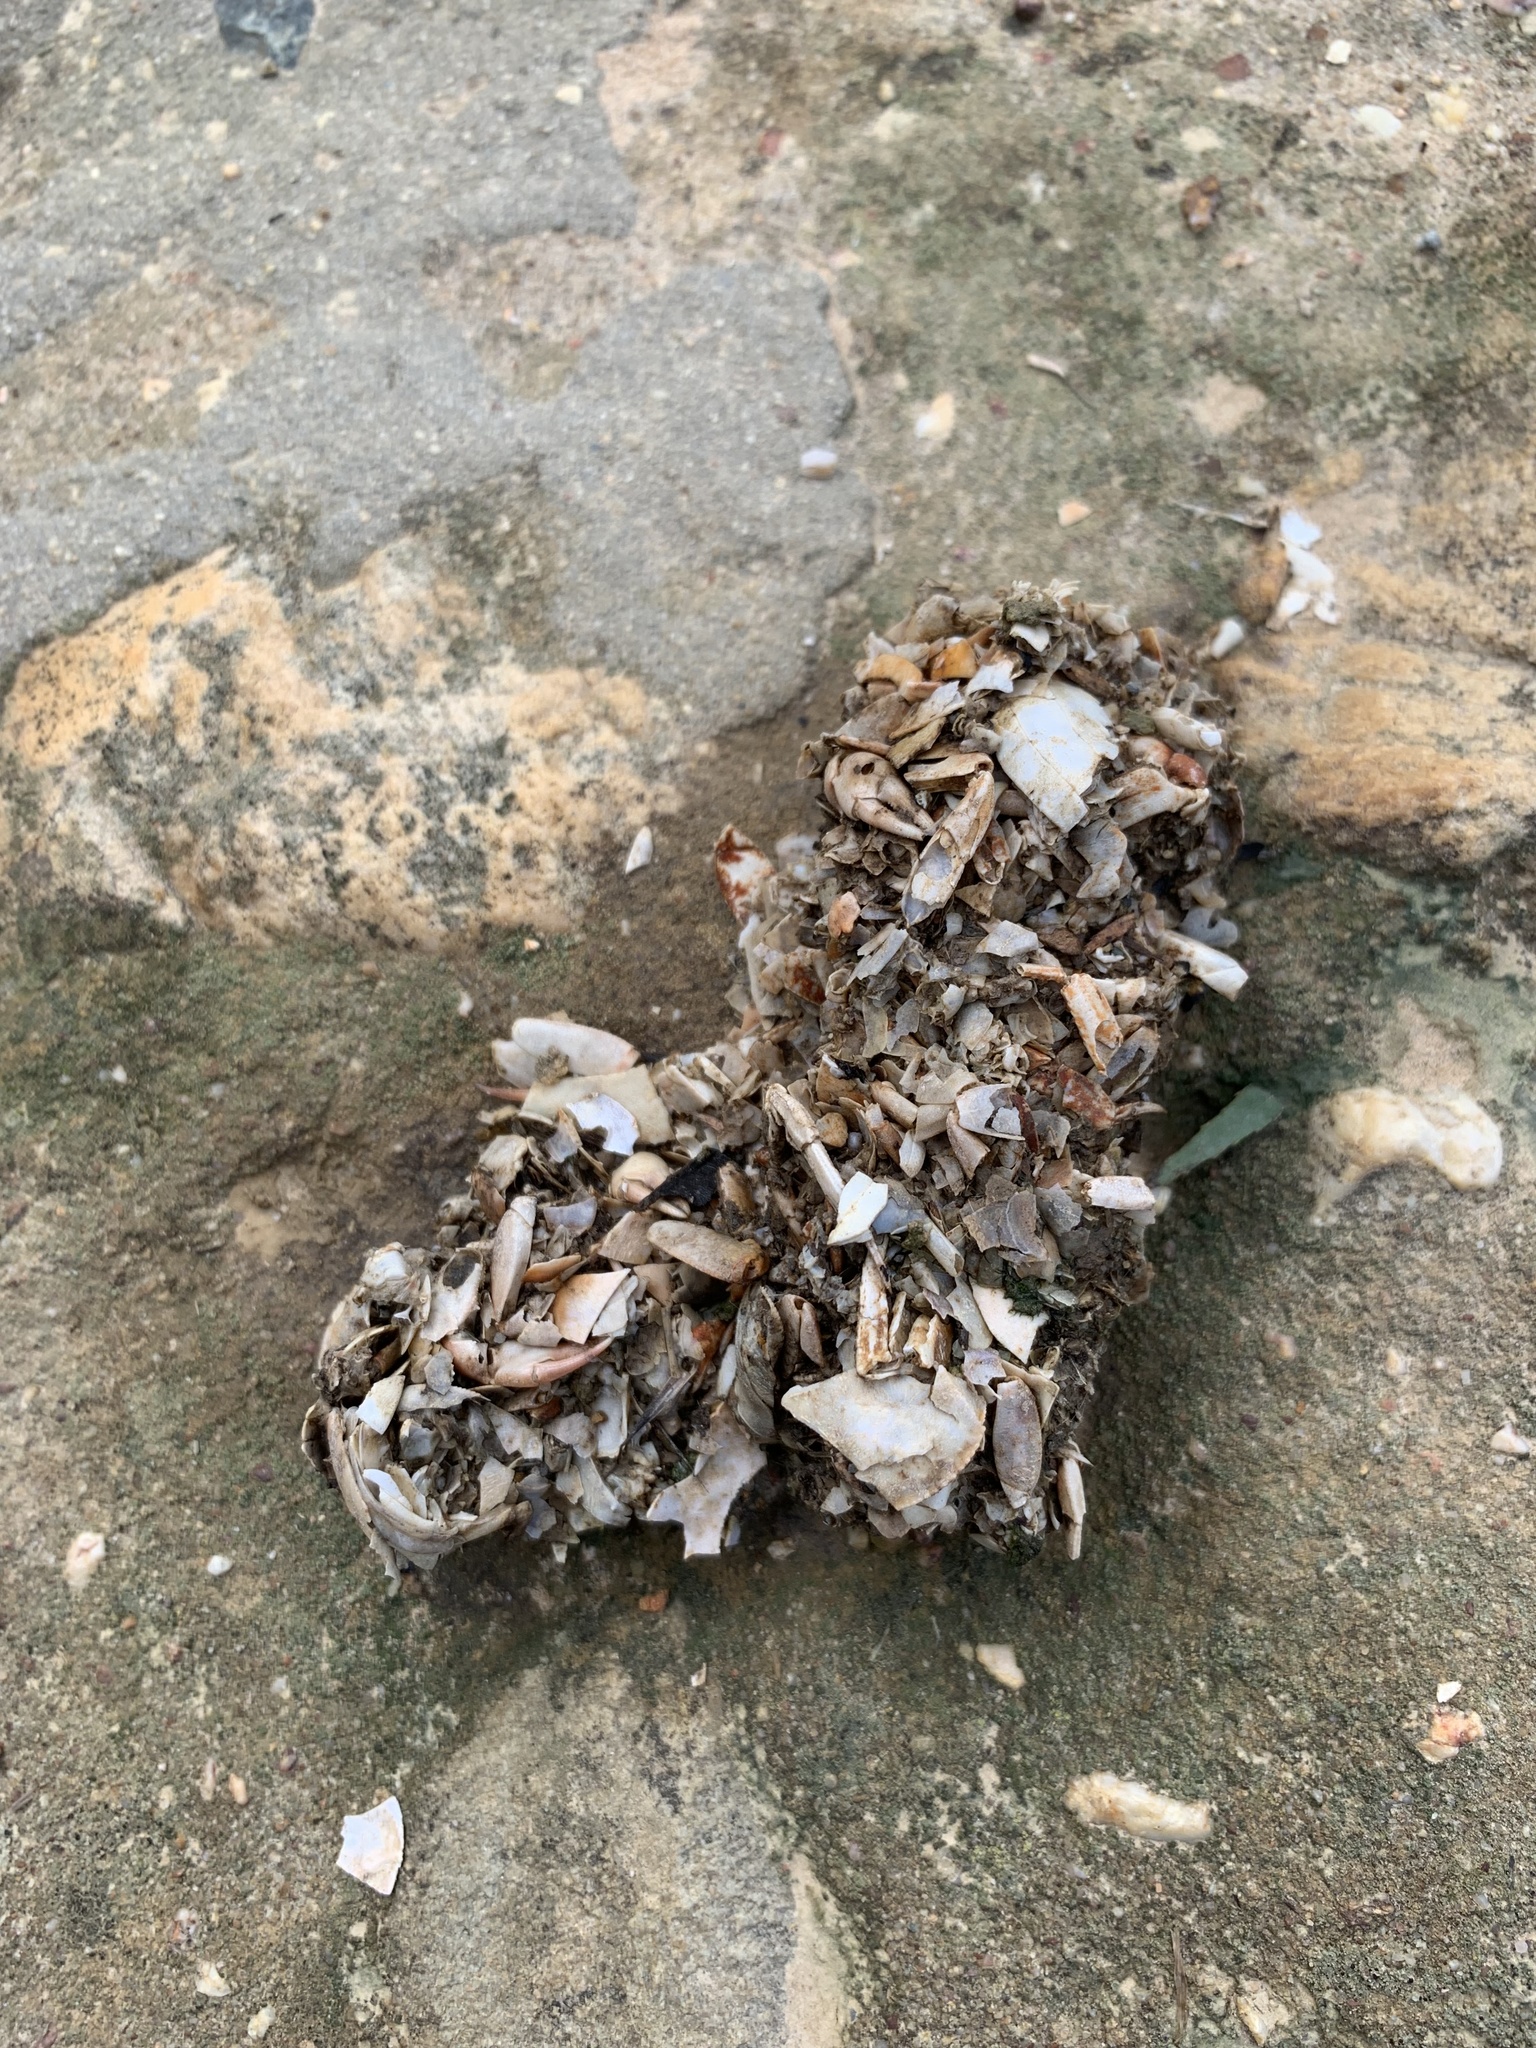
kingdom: Animalia
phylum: Chordata
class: Mammalia
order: Carnivora
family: Mustelidae
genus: Aonyx
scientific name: Aonyx capensis
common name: African clawless otter
